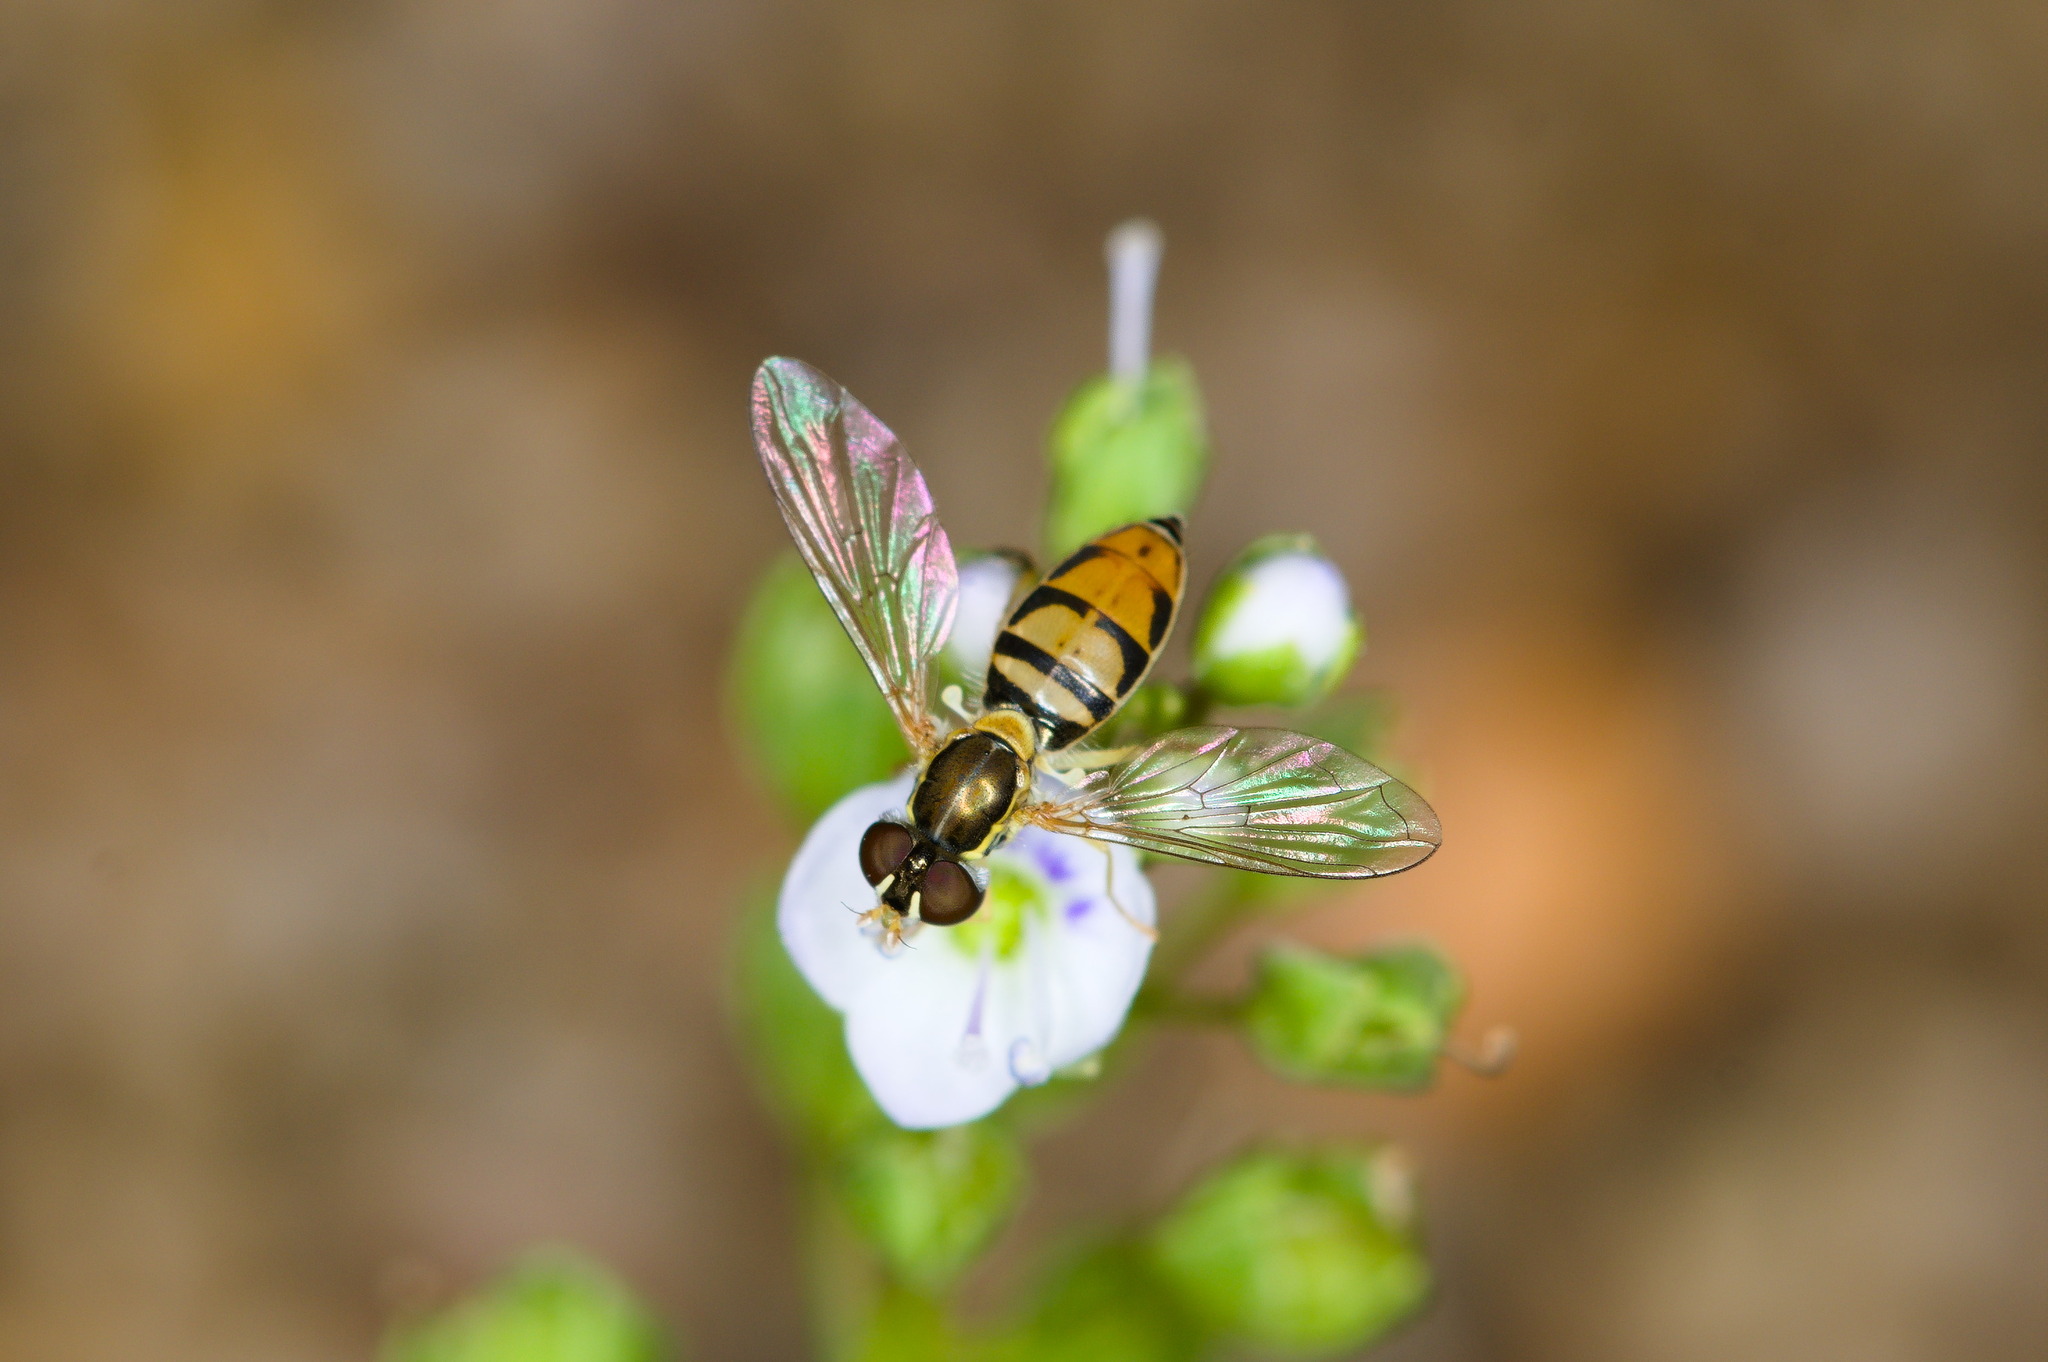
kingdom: Animalia
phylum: Arthropoda
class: Insecta
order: Diptera
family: Syrphidae
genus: Toxomerus
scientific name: Toxomerus marginatus
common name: Syrphid fly
